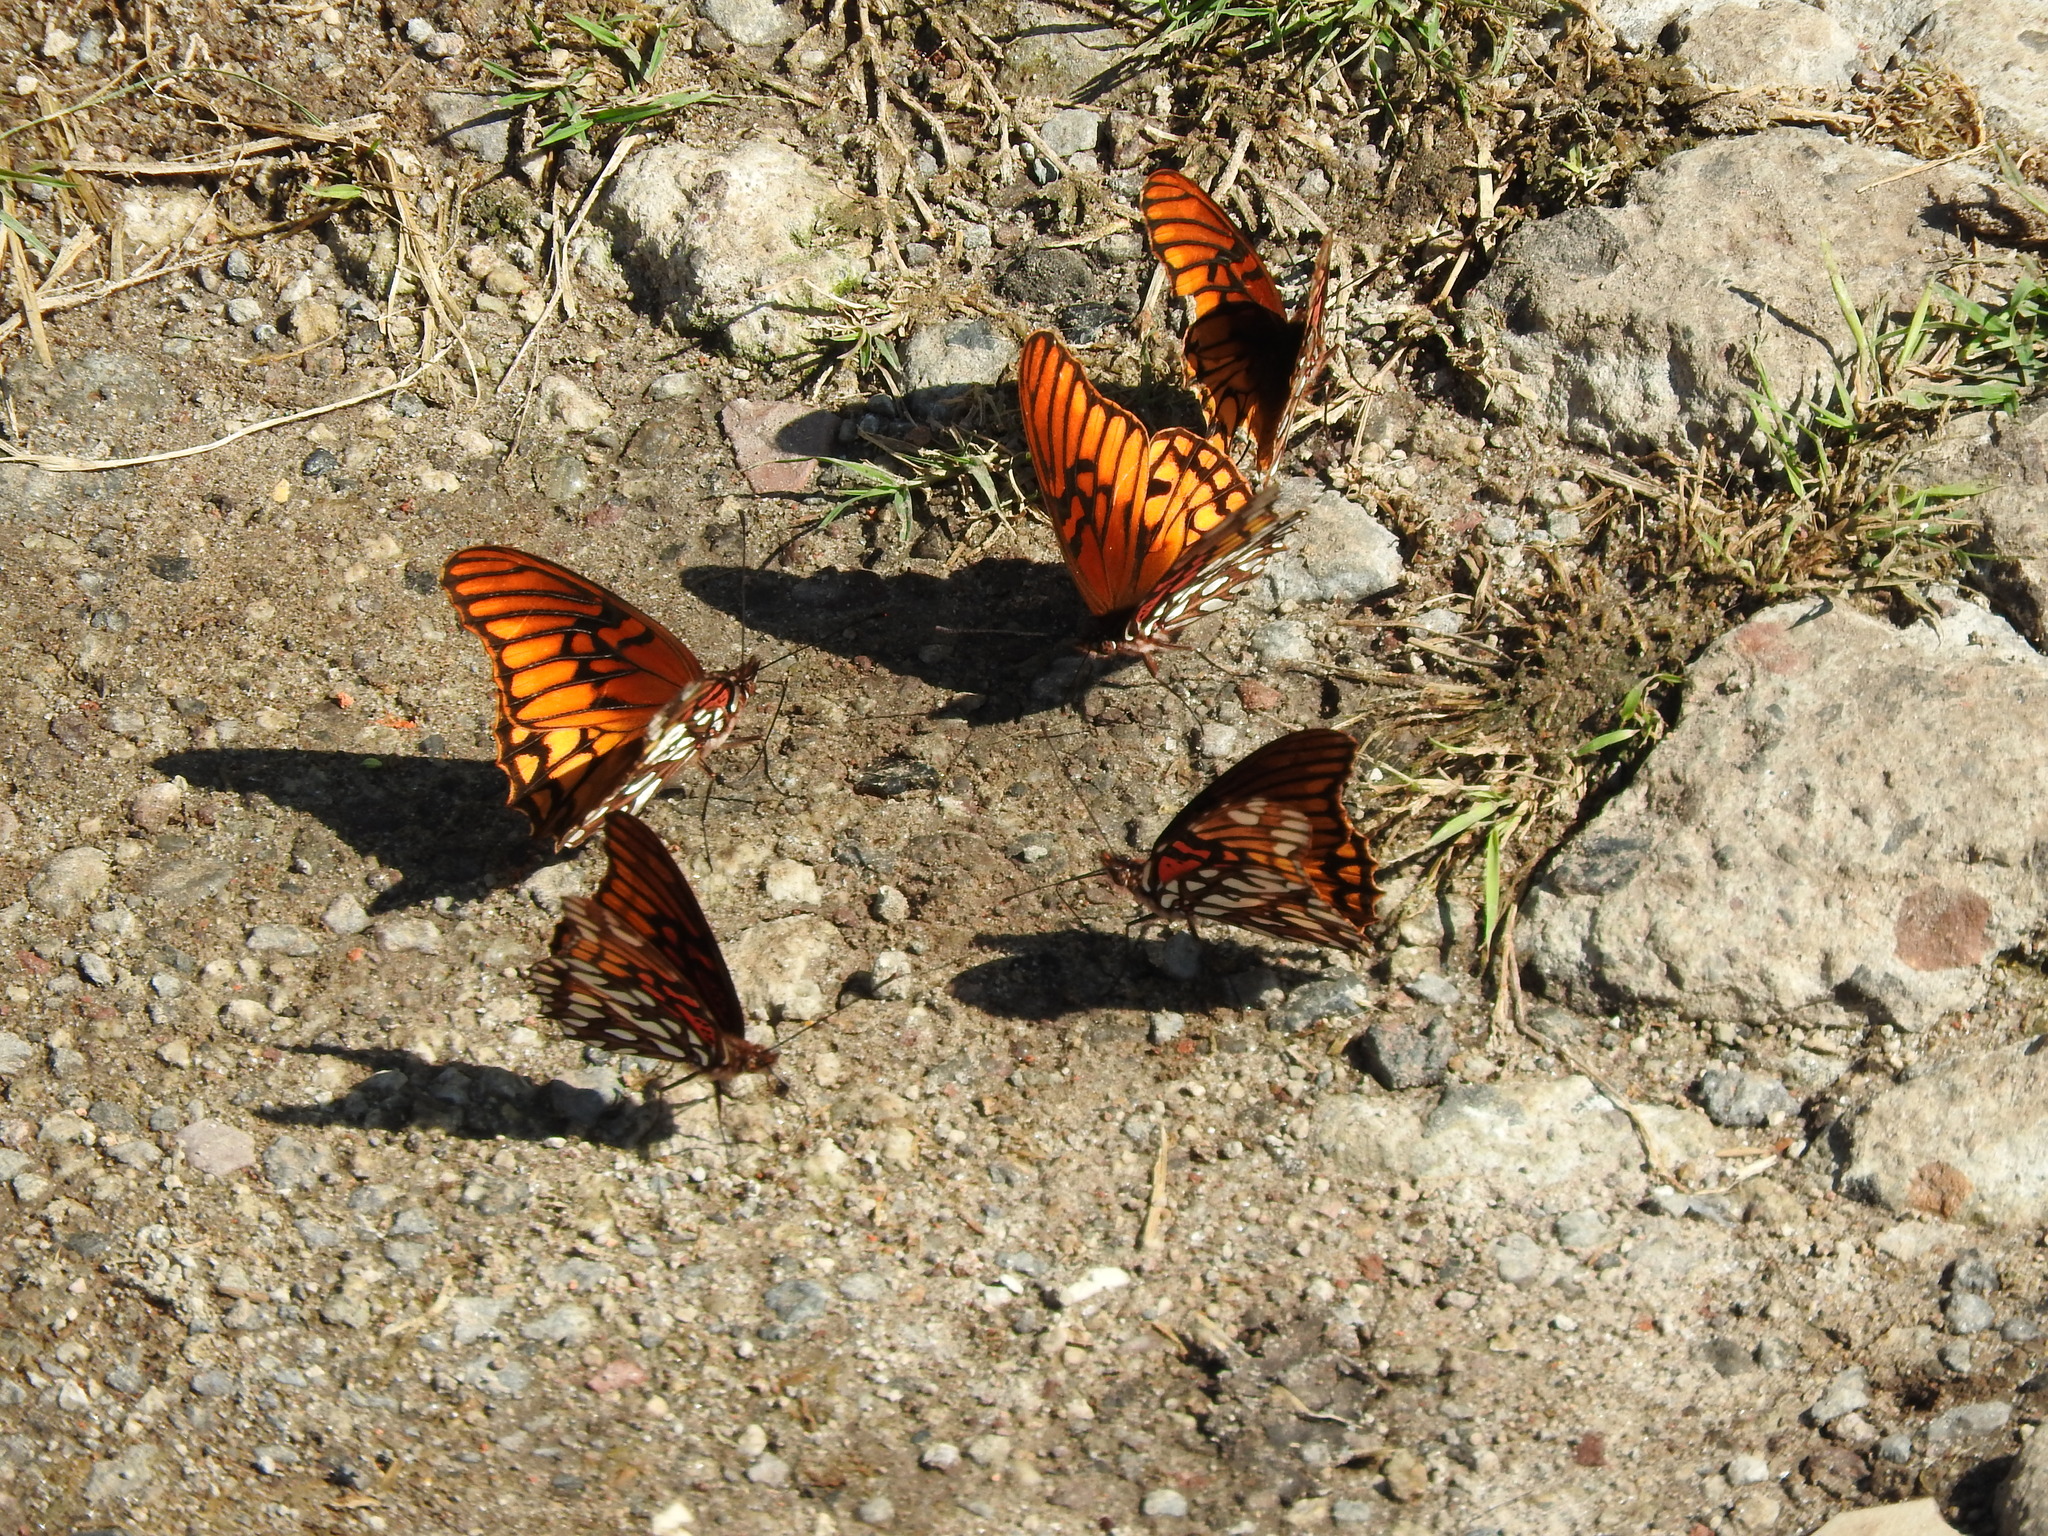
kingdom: Animalia
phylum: Arthropoda
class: Insecta
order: Lepidoptera
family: Nymphalidae
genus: Dione
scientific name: Dione moneta
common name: Mexican silverspot
